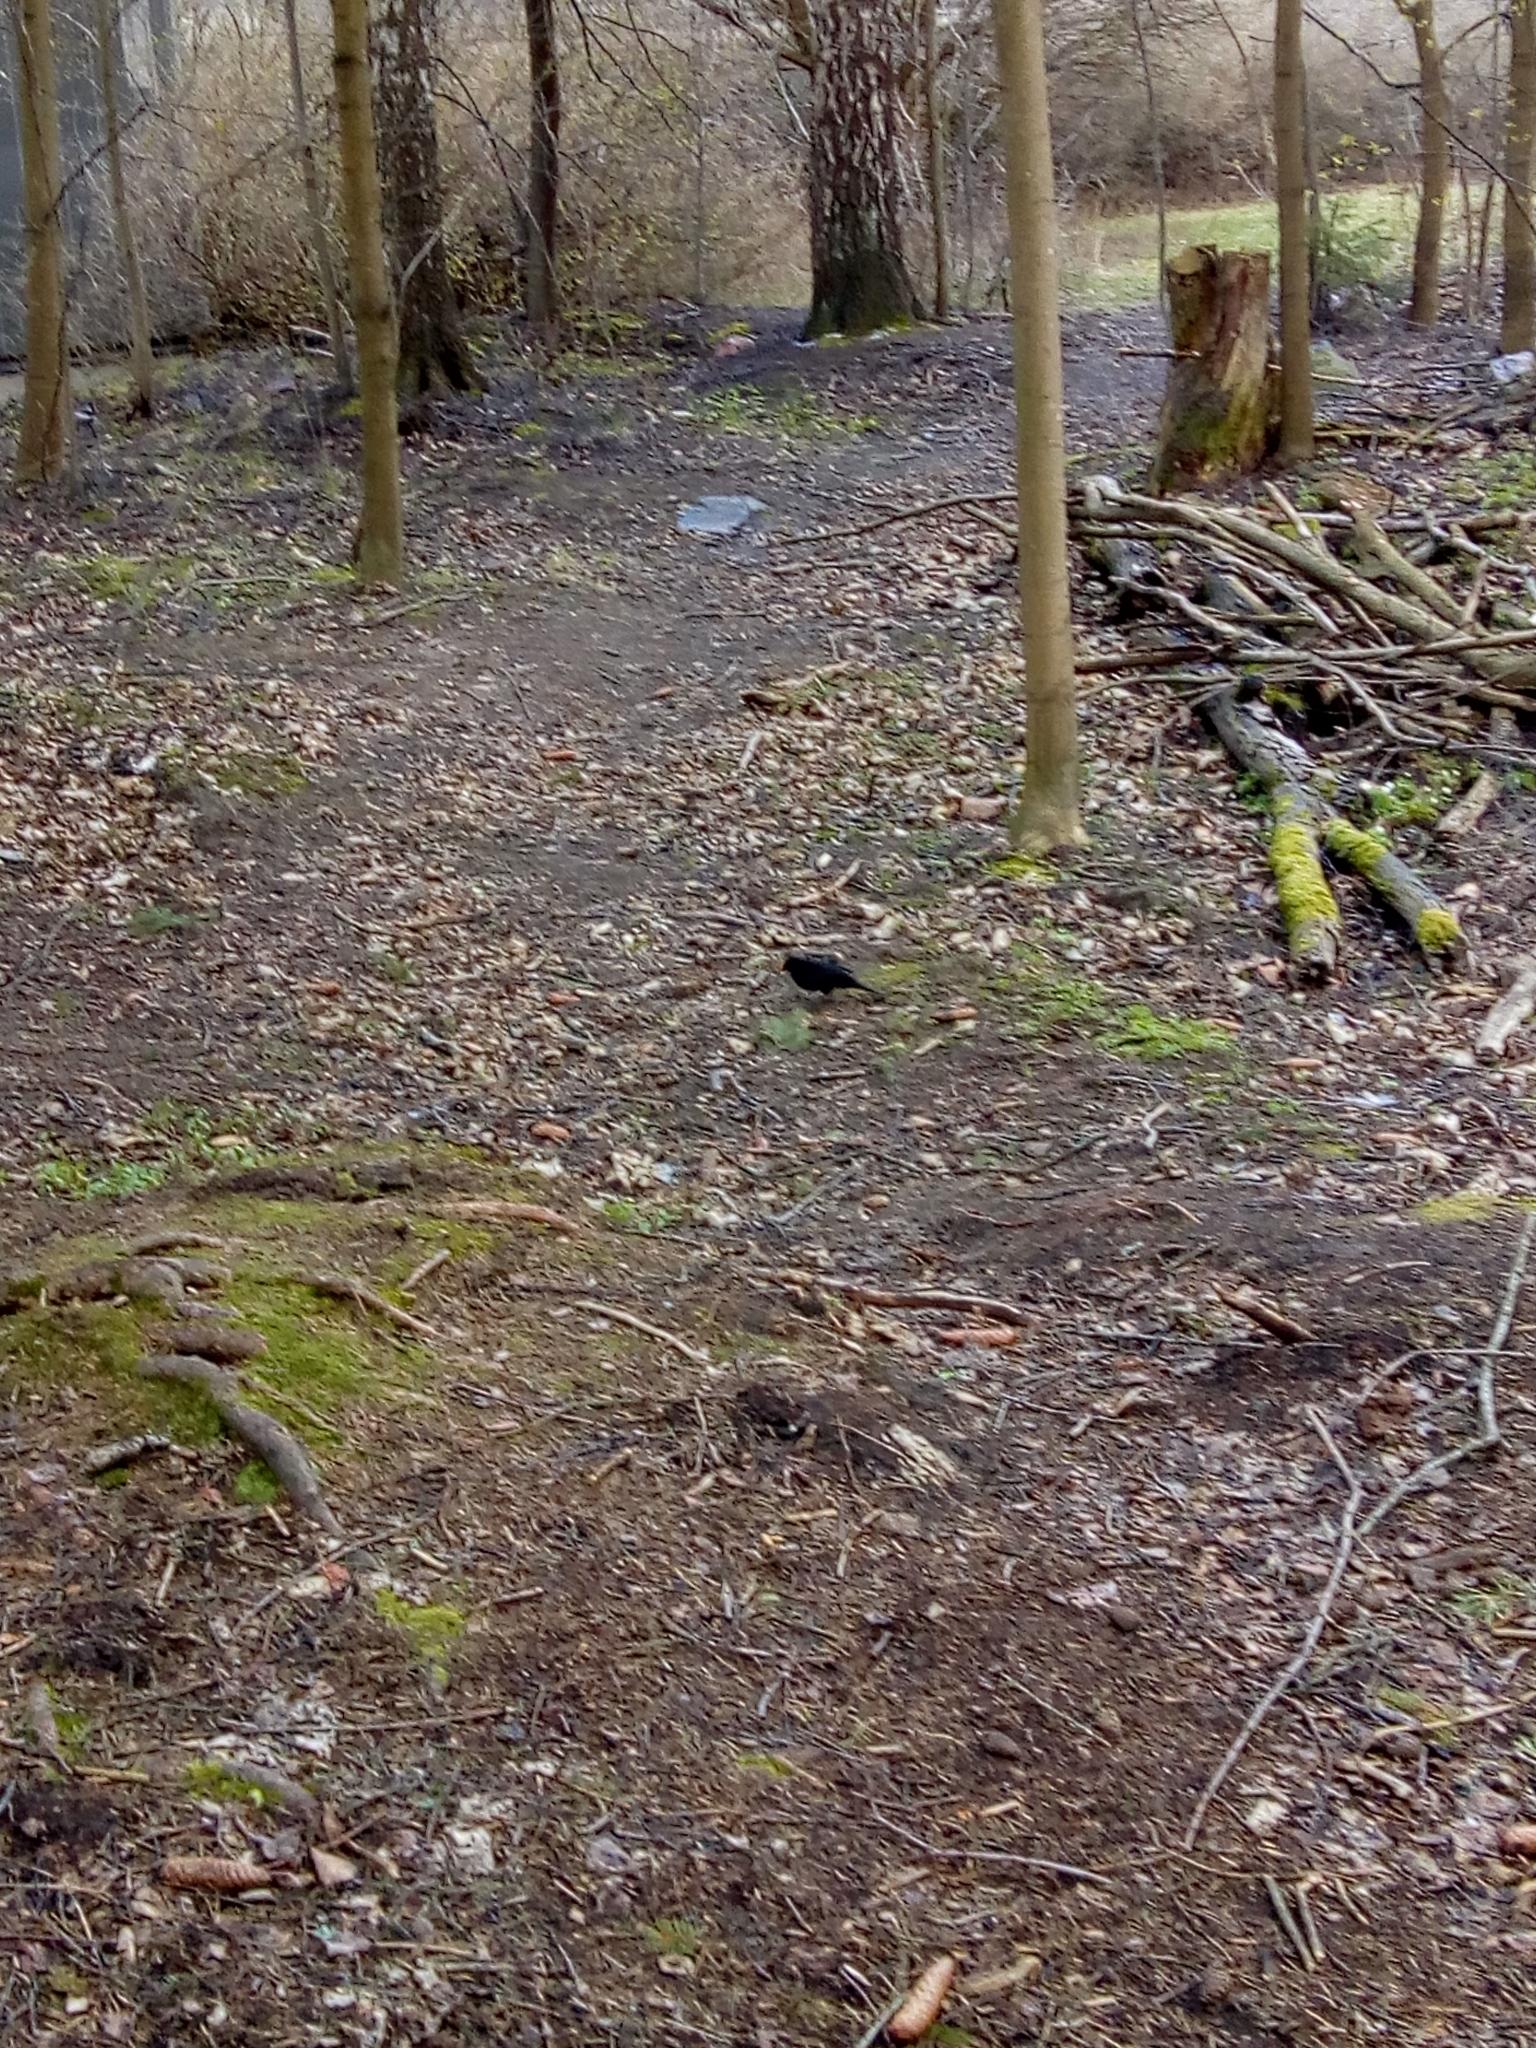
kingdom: Animalia
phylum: Chordata
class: Aves
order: Passeriformes
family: Turdidae
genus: Turdus
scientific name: Turdus merula
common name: Common blackbird
